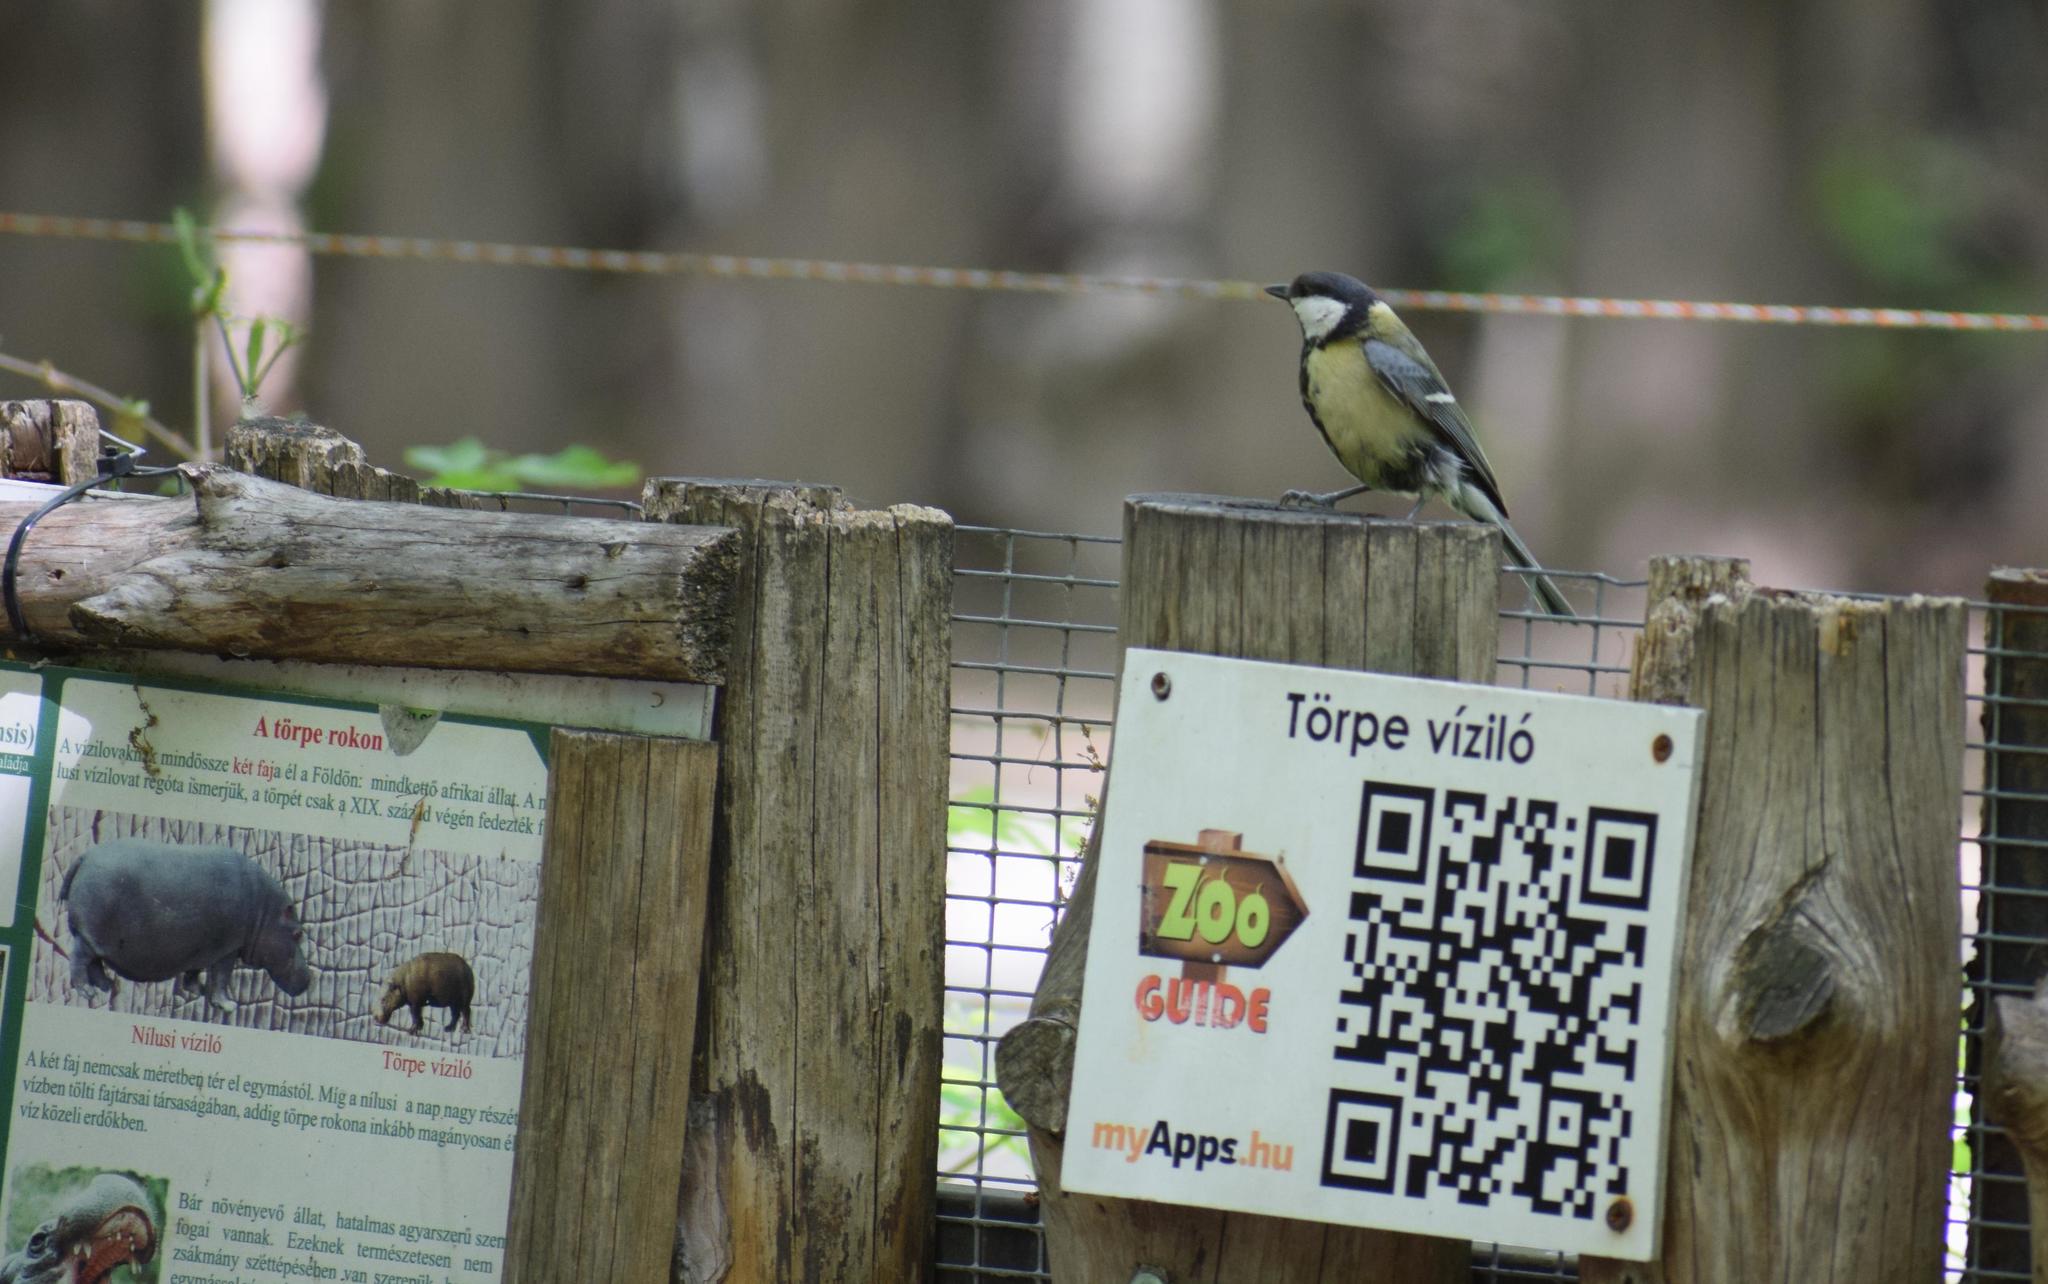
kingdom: Animalia
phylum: Chordata
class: Aves
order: Passeriformes
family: Paridae
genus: Parus
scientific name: Parus major
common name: Great tit
